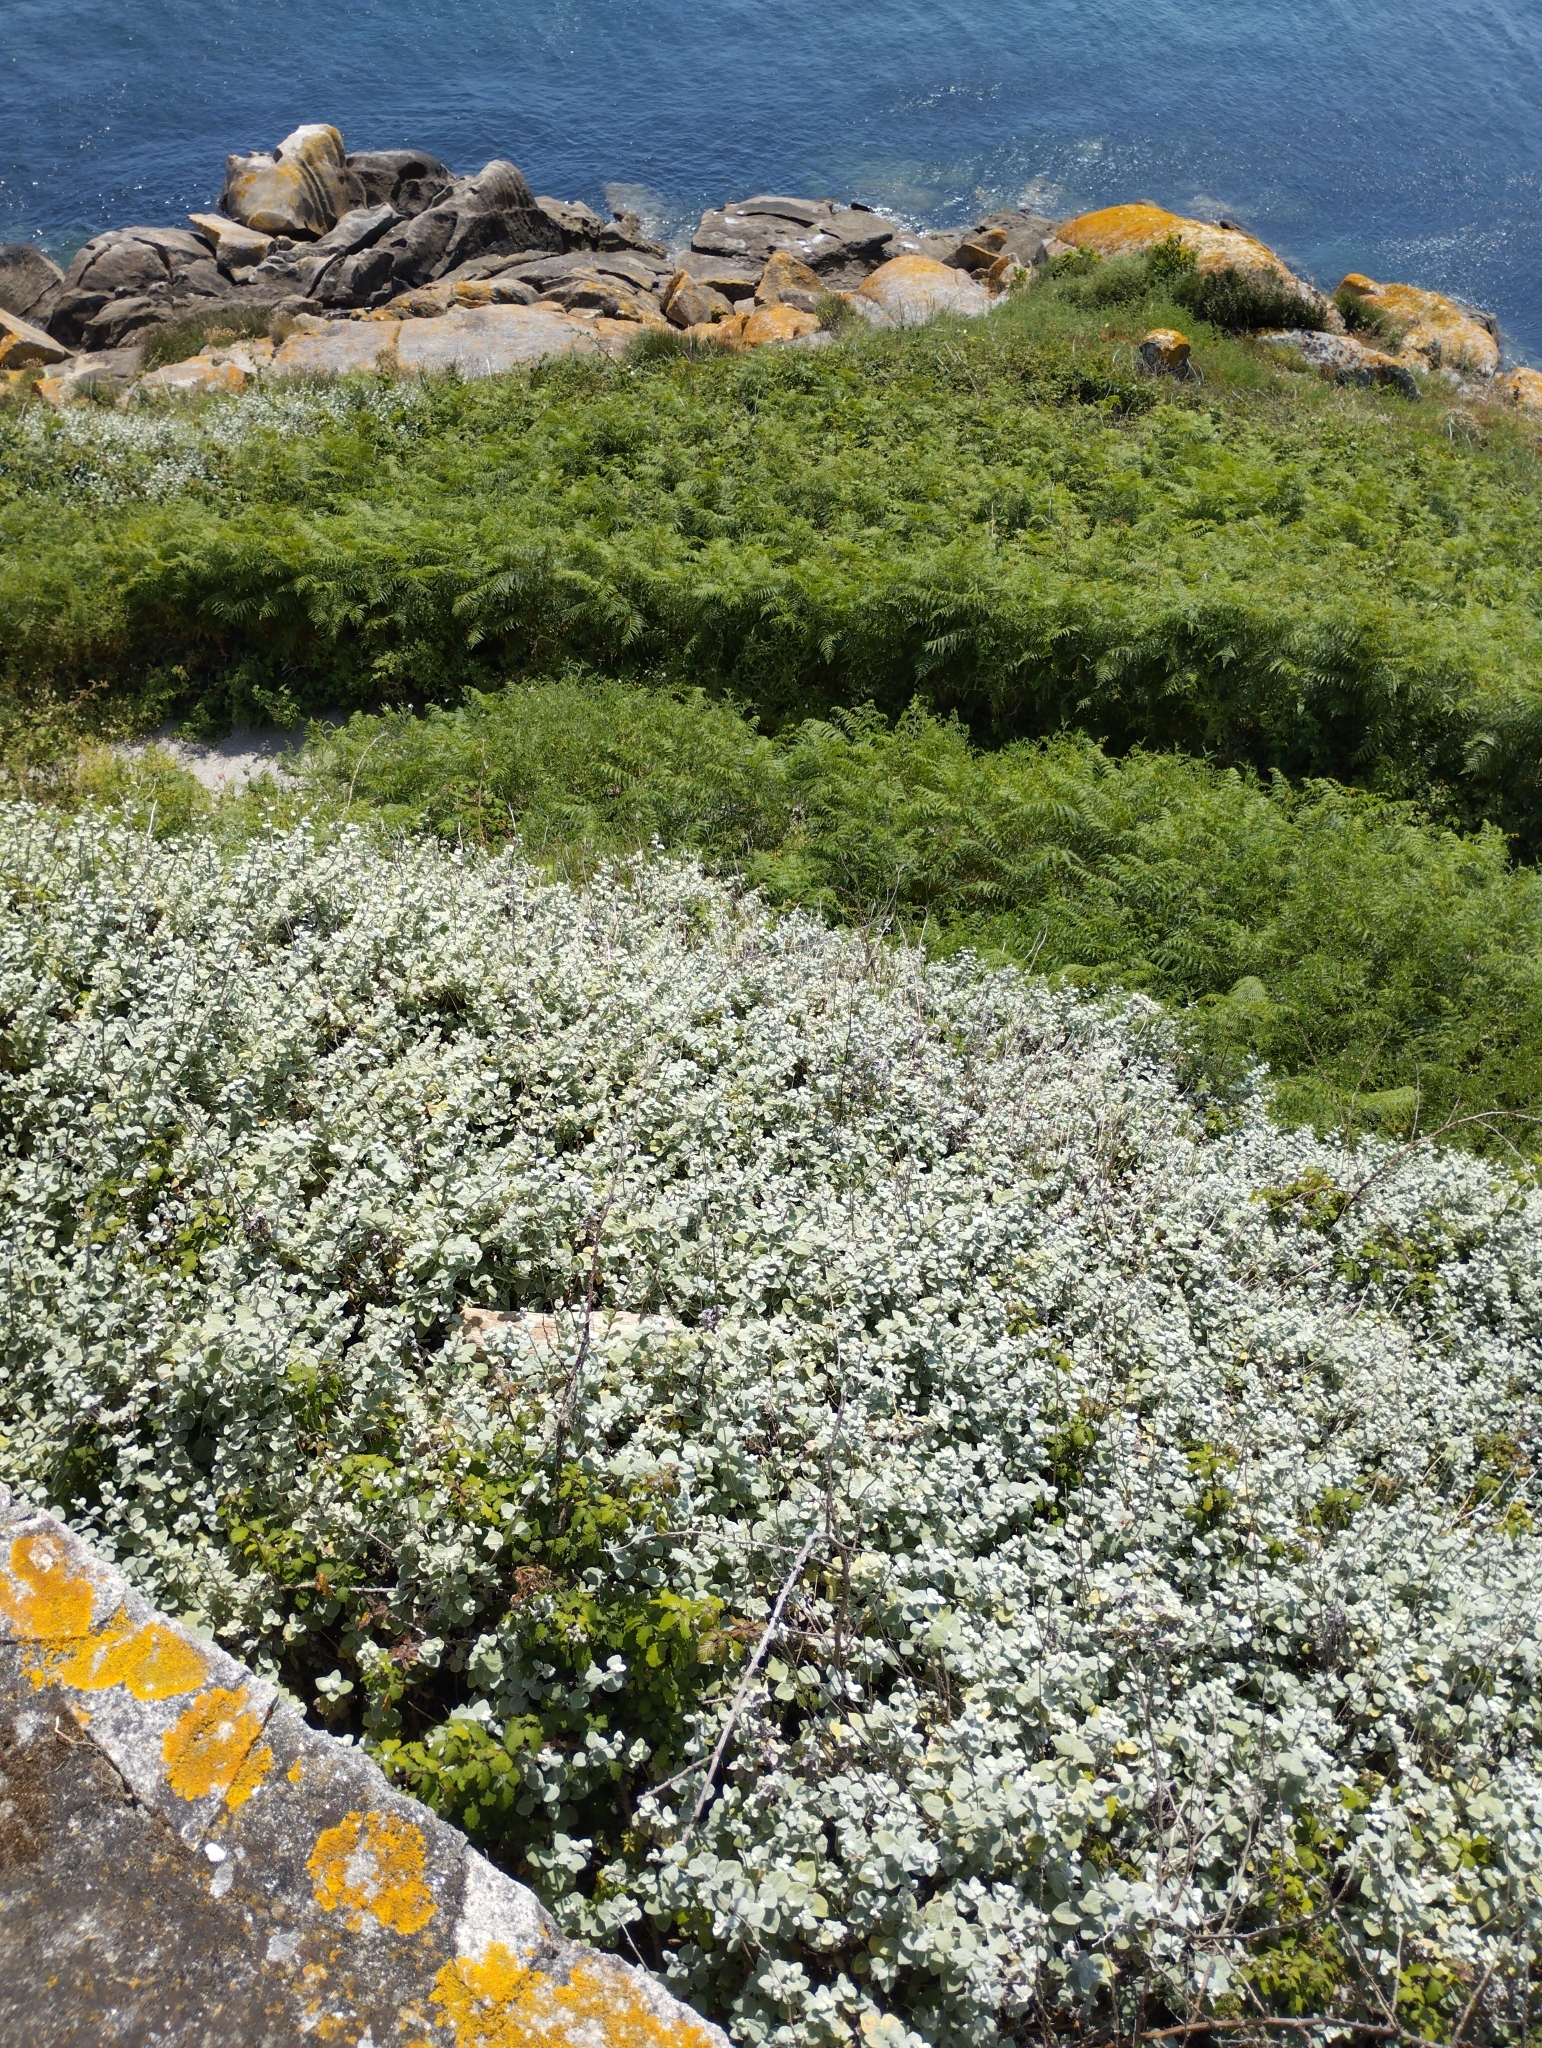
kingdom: Plantae
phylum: Tracheophyta
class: Magnoliopsida
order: Asterales
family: Asteraceae
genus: Helichrysum
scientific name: Helichrysum petiolare
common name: Licorice-plant
